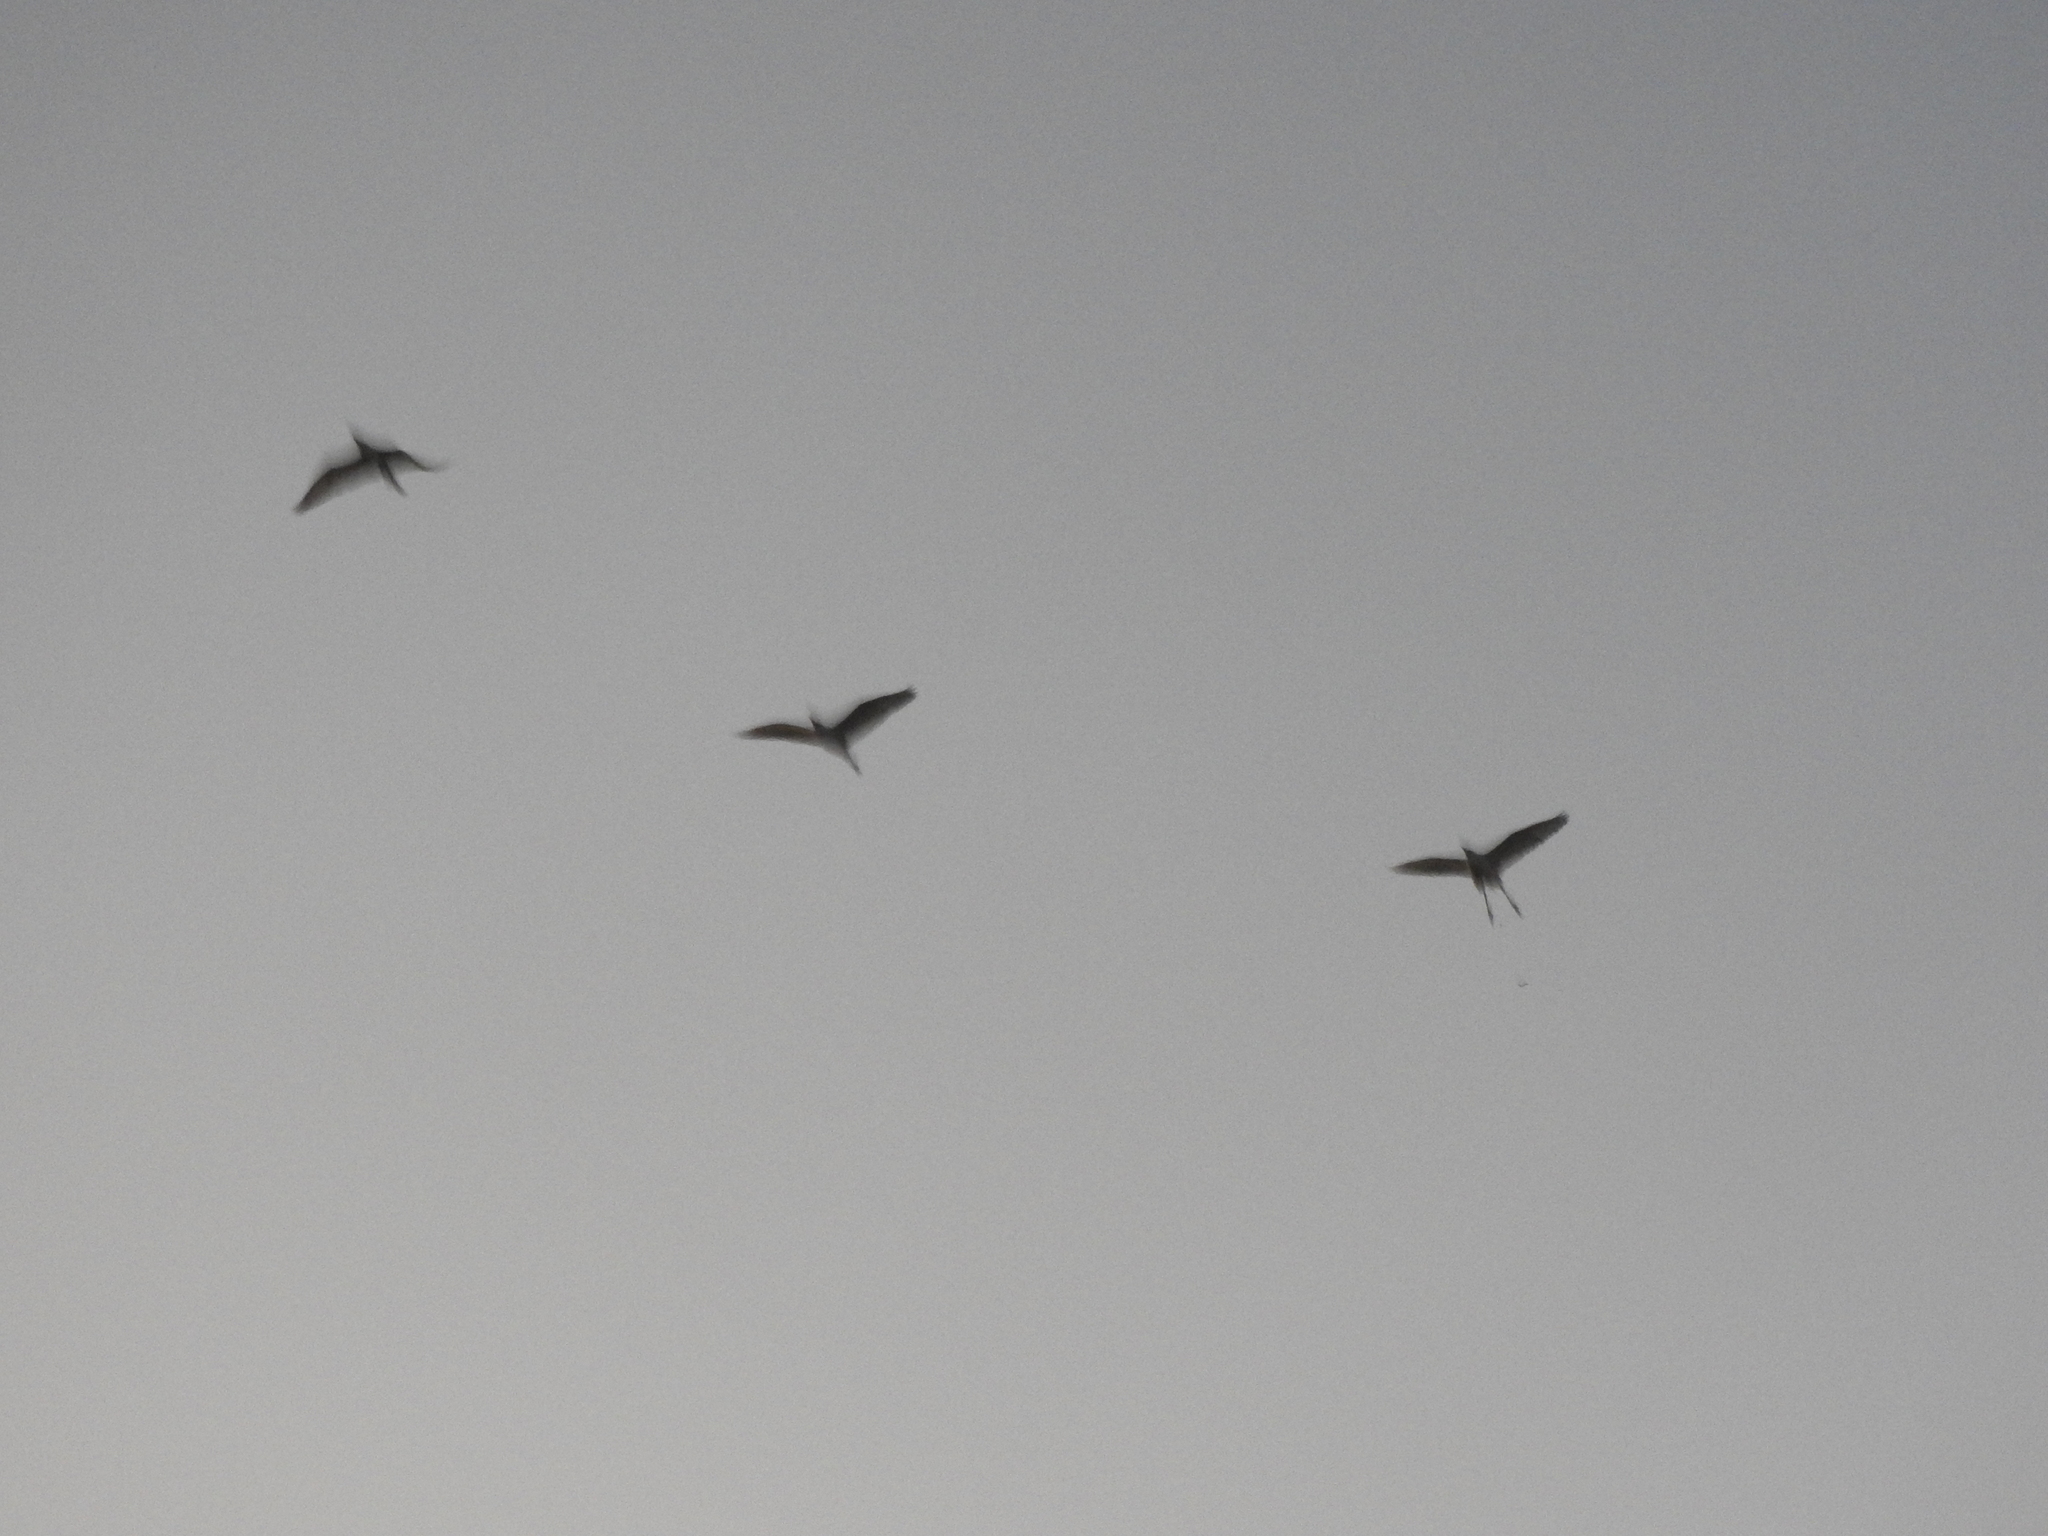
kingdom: Animalia
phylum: Chordata
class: Aves
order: Pelecaniformes
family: Ardeidae
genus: Bubulcus
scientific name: Bubulcus ibis
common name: Cattle egret
